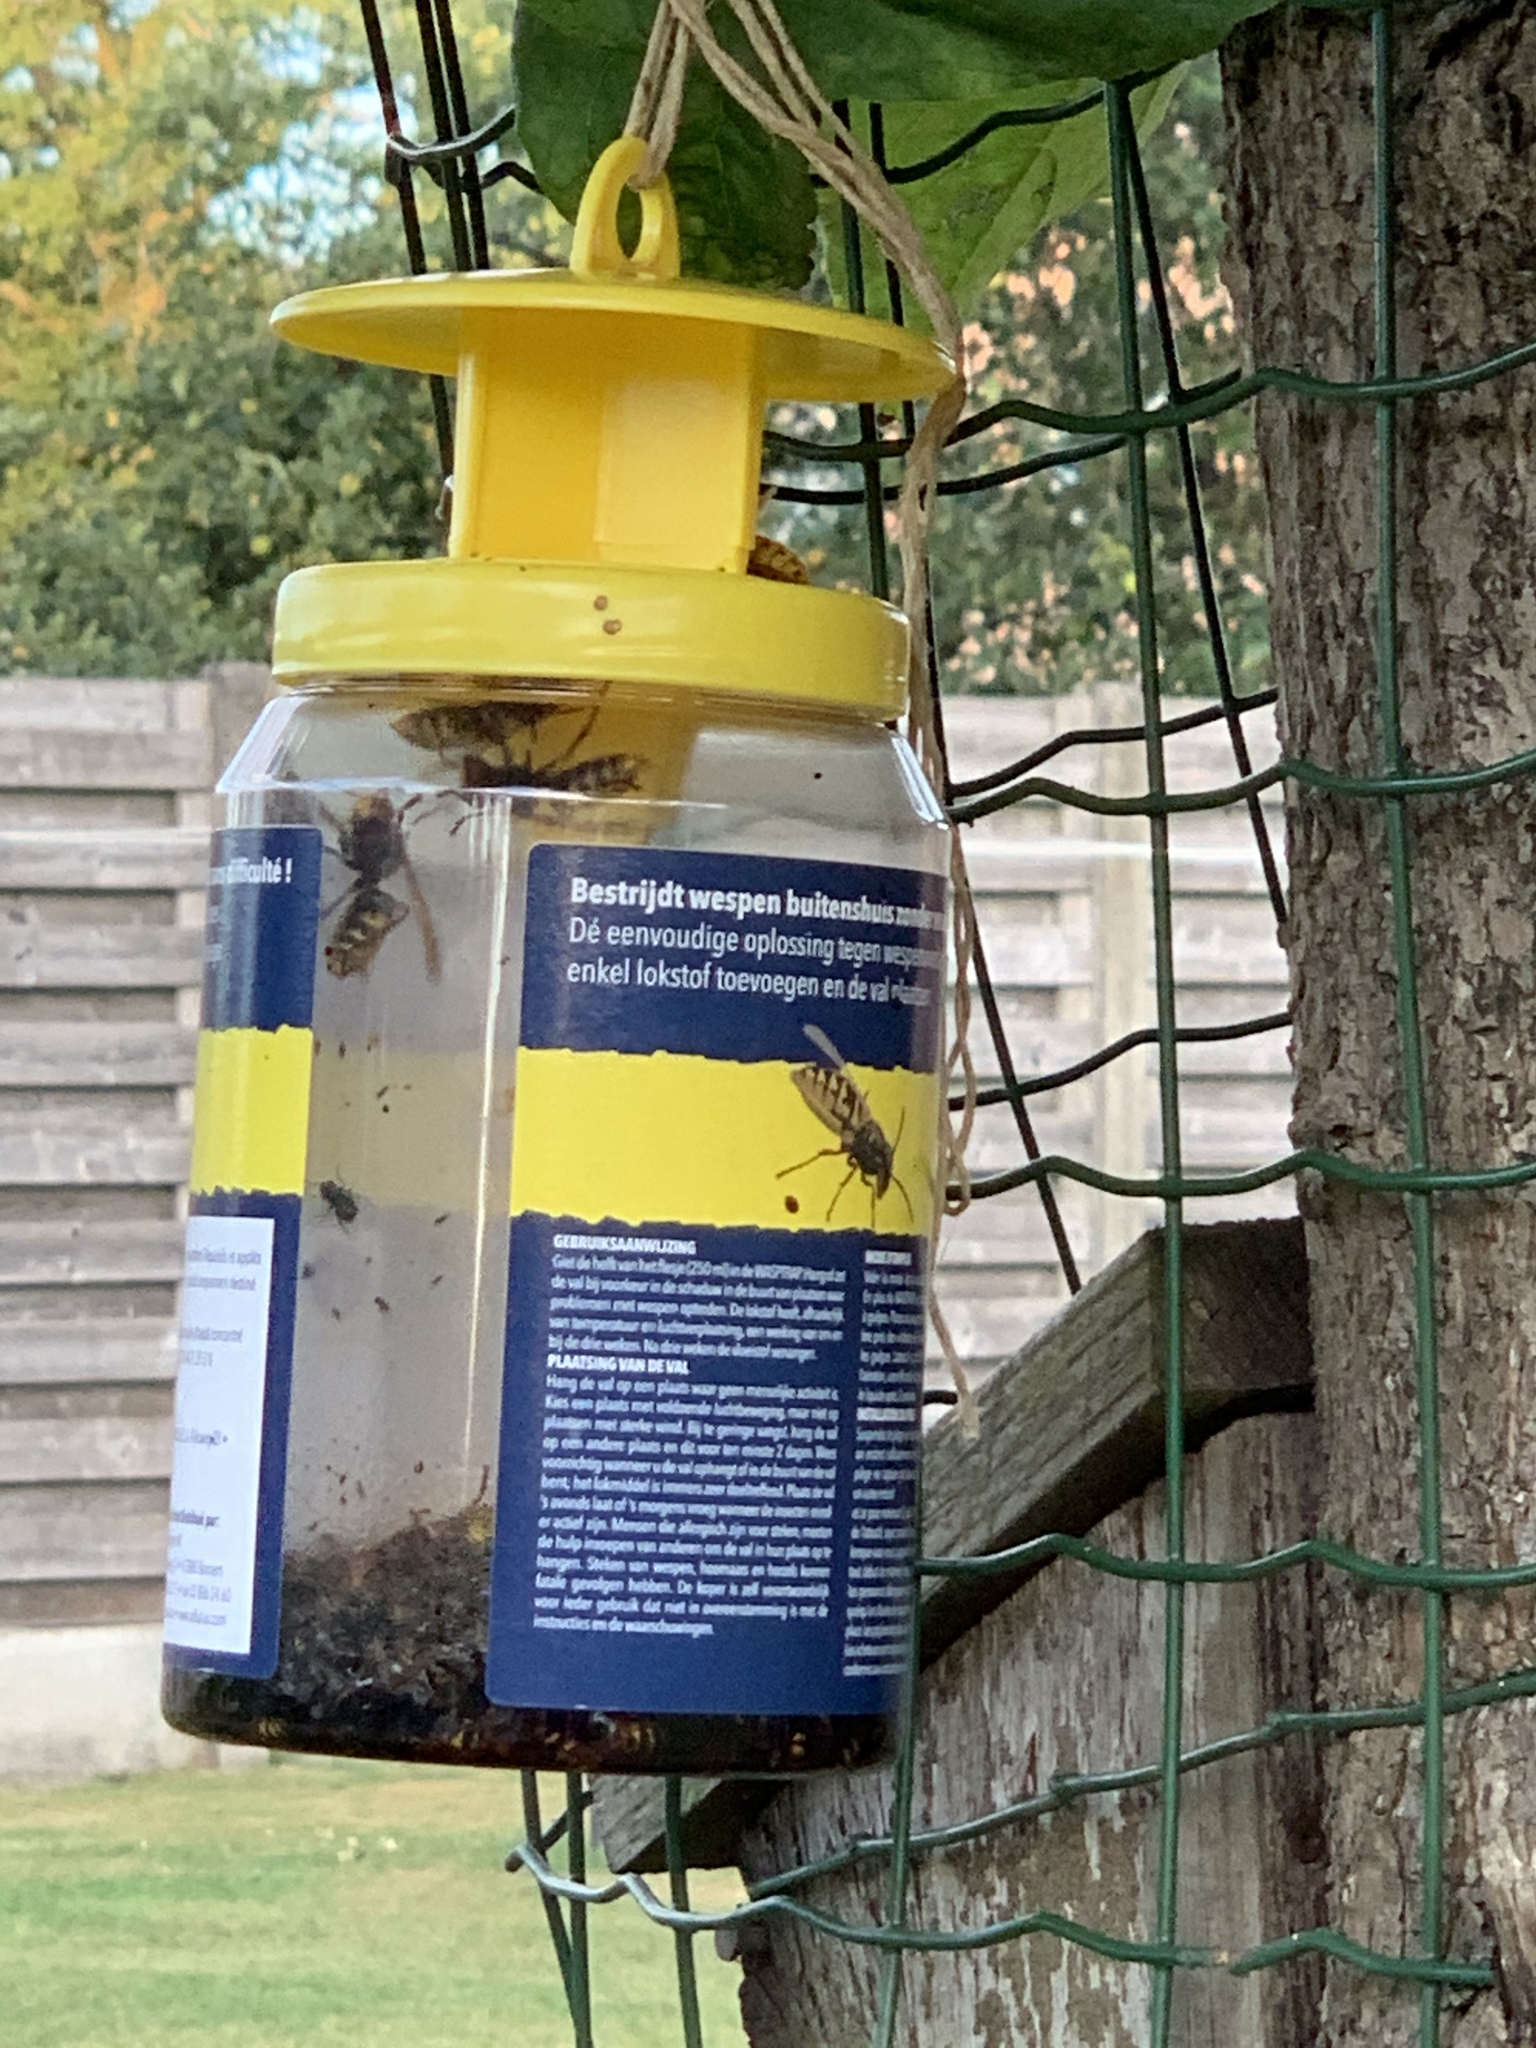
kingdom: Animalia
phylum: Arthropoda
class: Insecta
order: Hymenoptera
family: Vespidae
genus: Vespa
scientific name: Vespa crabro
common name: Hornet
